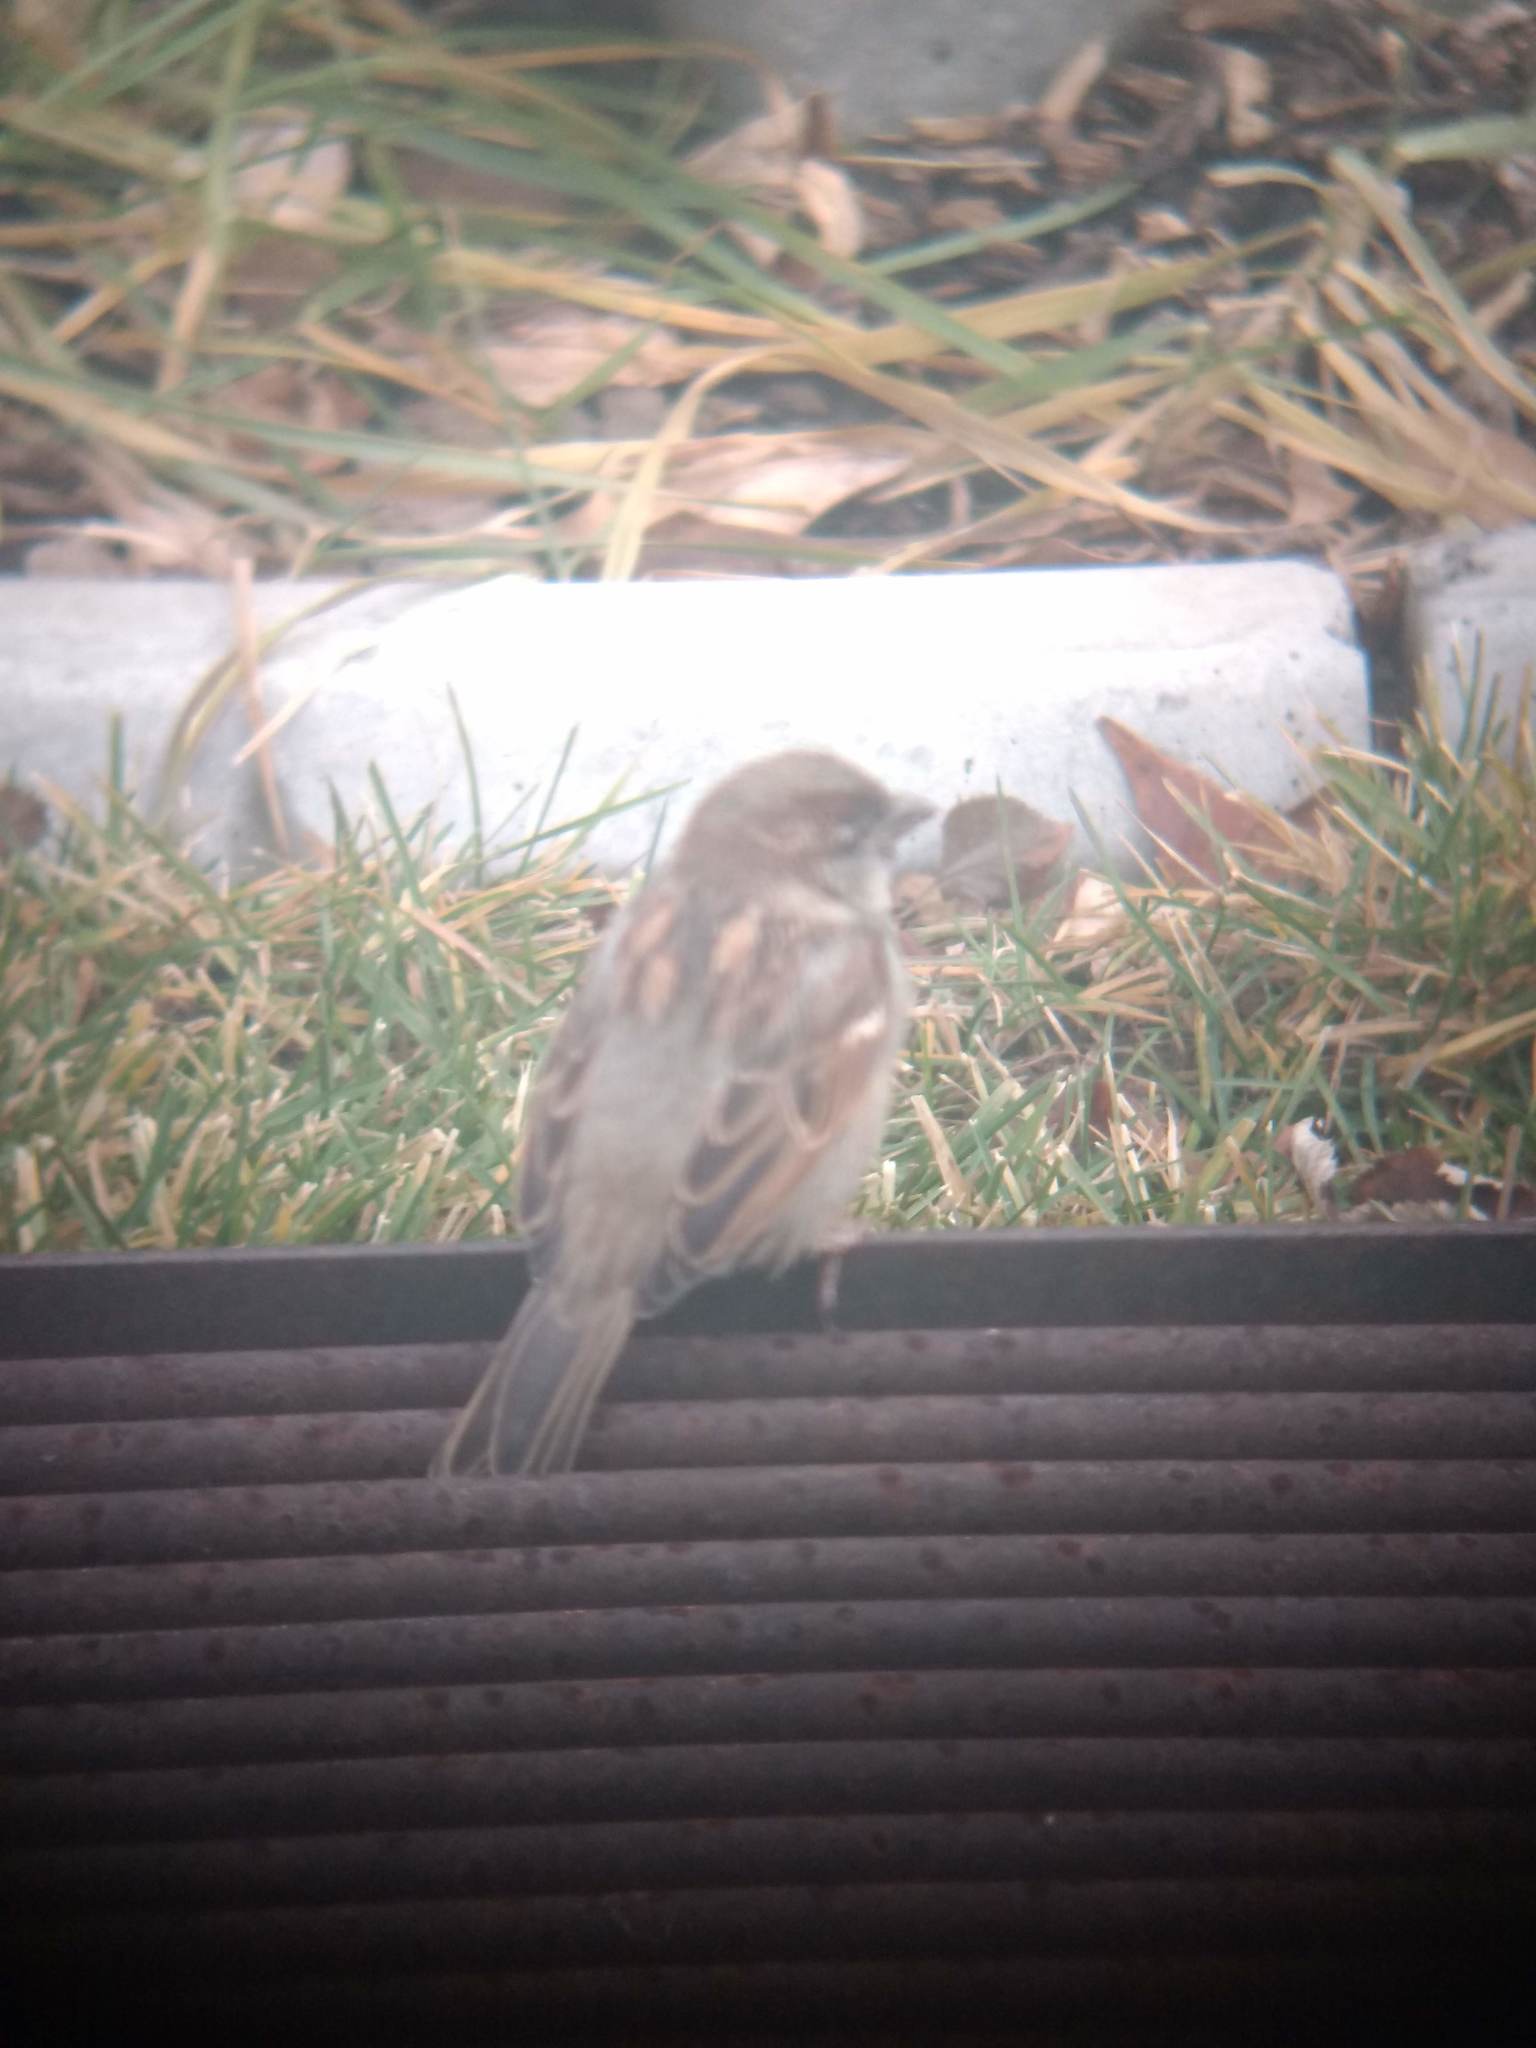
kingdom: Animalia
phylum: Chordata
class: Aves
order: Passeriformes
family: Passeridae
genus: Passer
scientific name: Passer domesticus
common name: House sparrow
